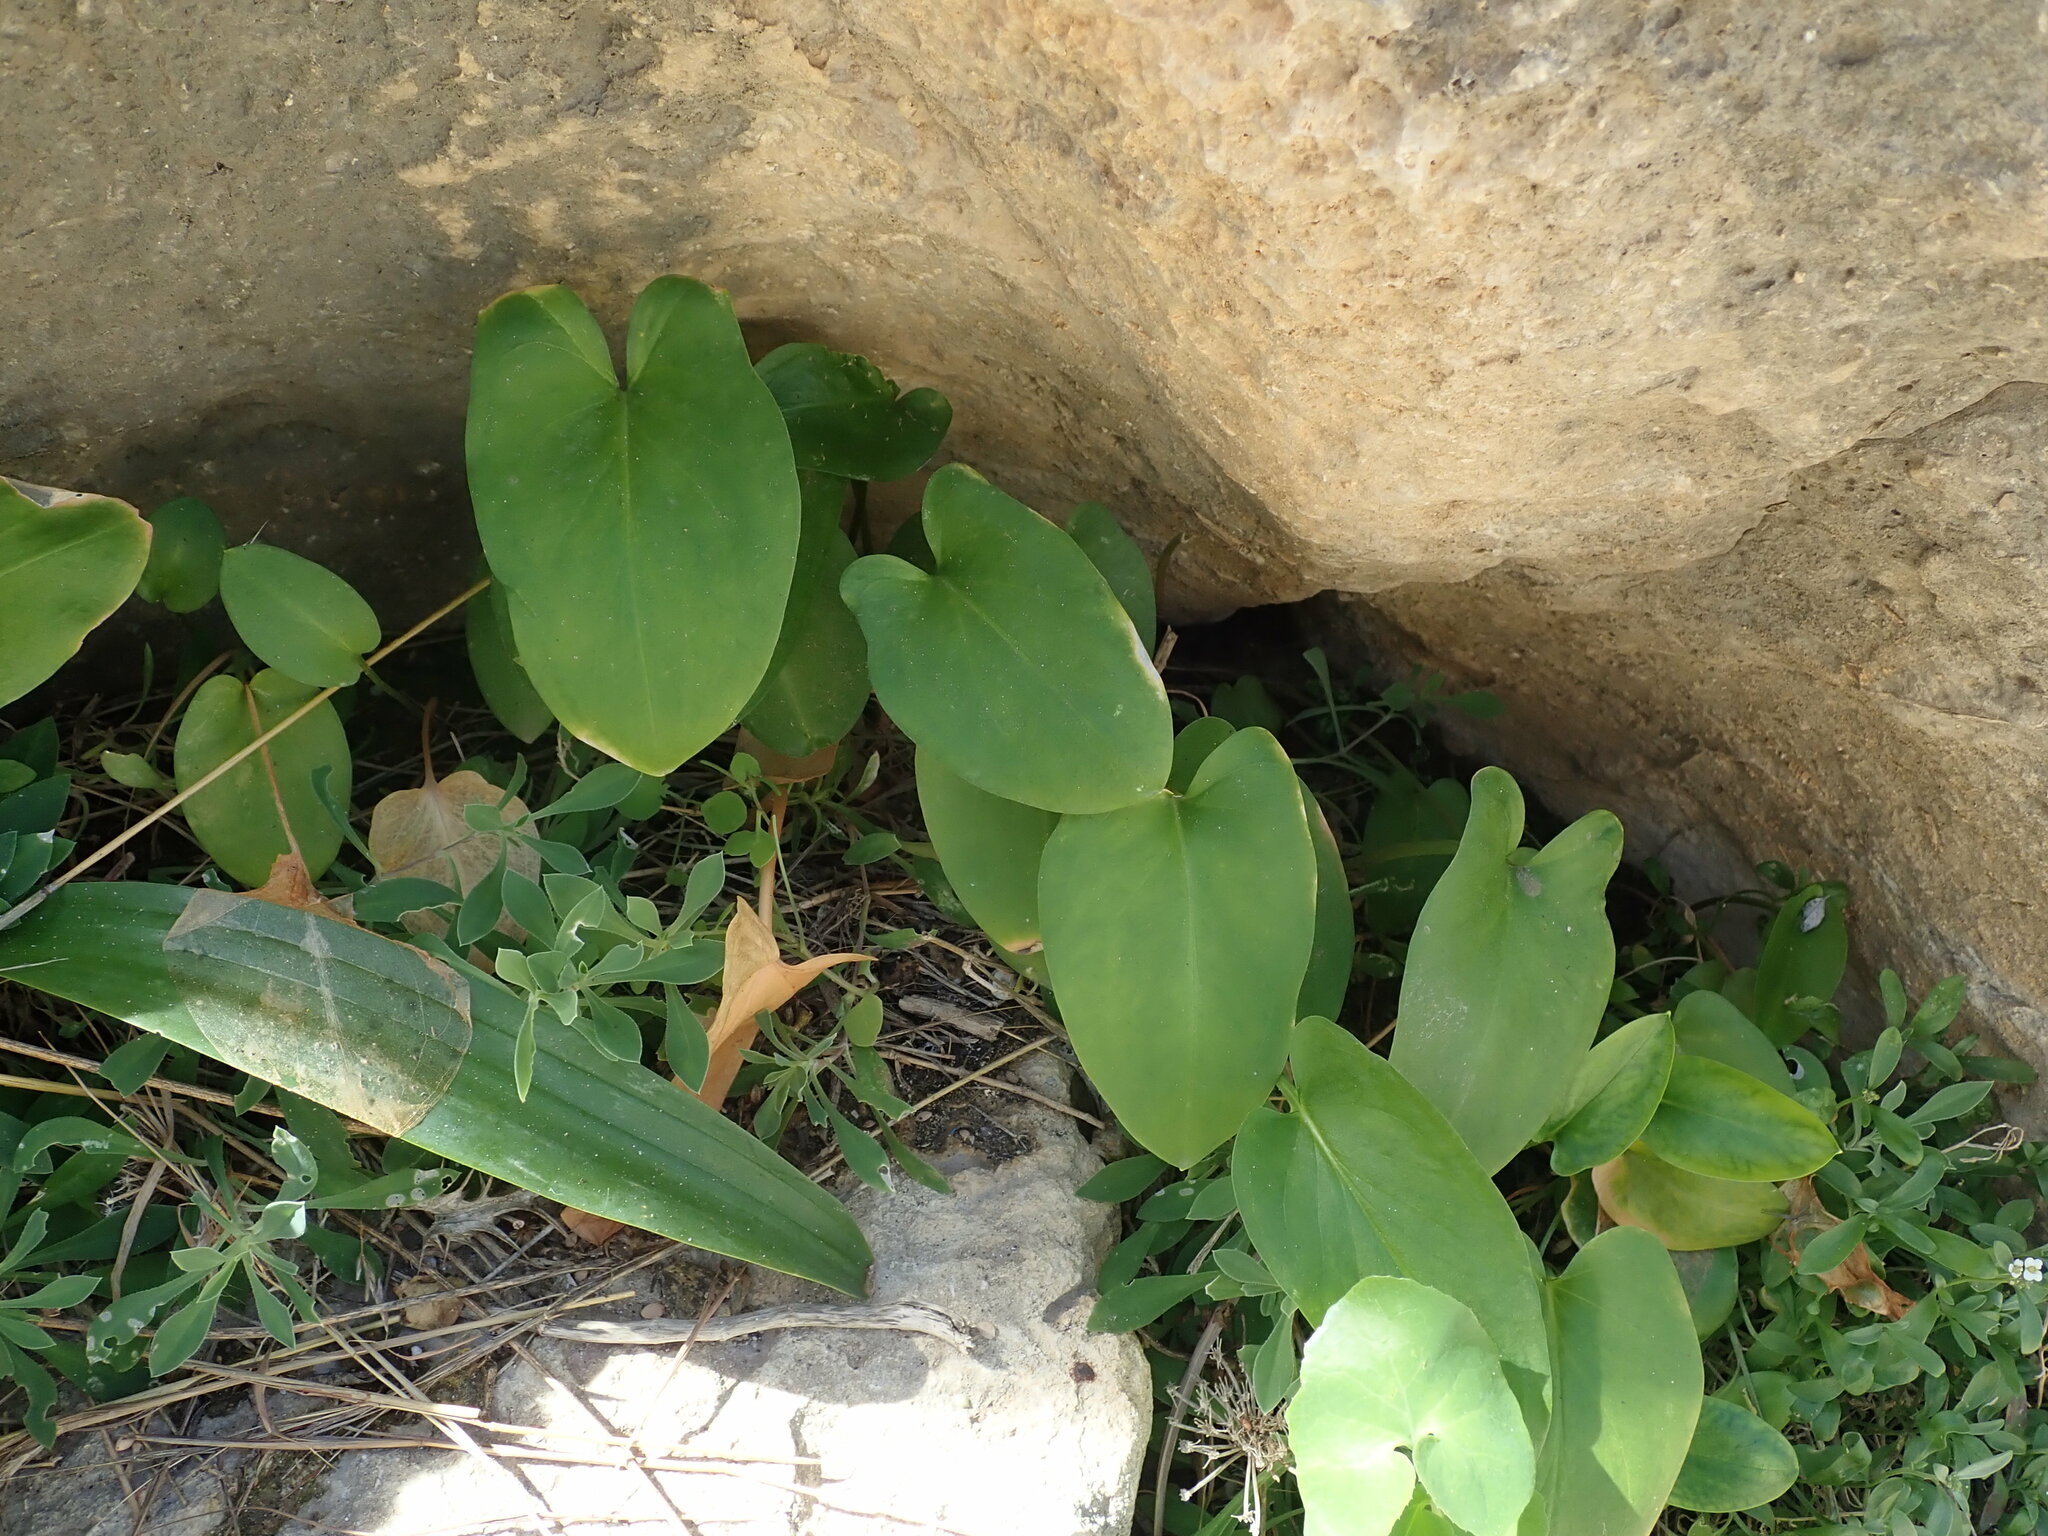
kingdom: Plantae
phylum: Tracheophyta
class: Liliopsida
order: Alismatales
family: Araceae
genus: Arisarum
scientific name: Arisarum vulgare
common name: Common arisarum
